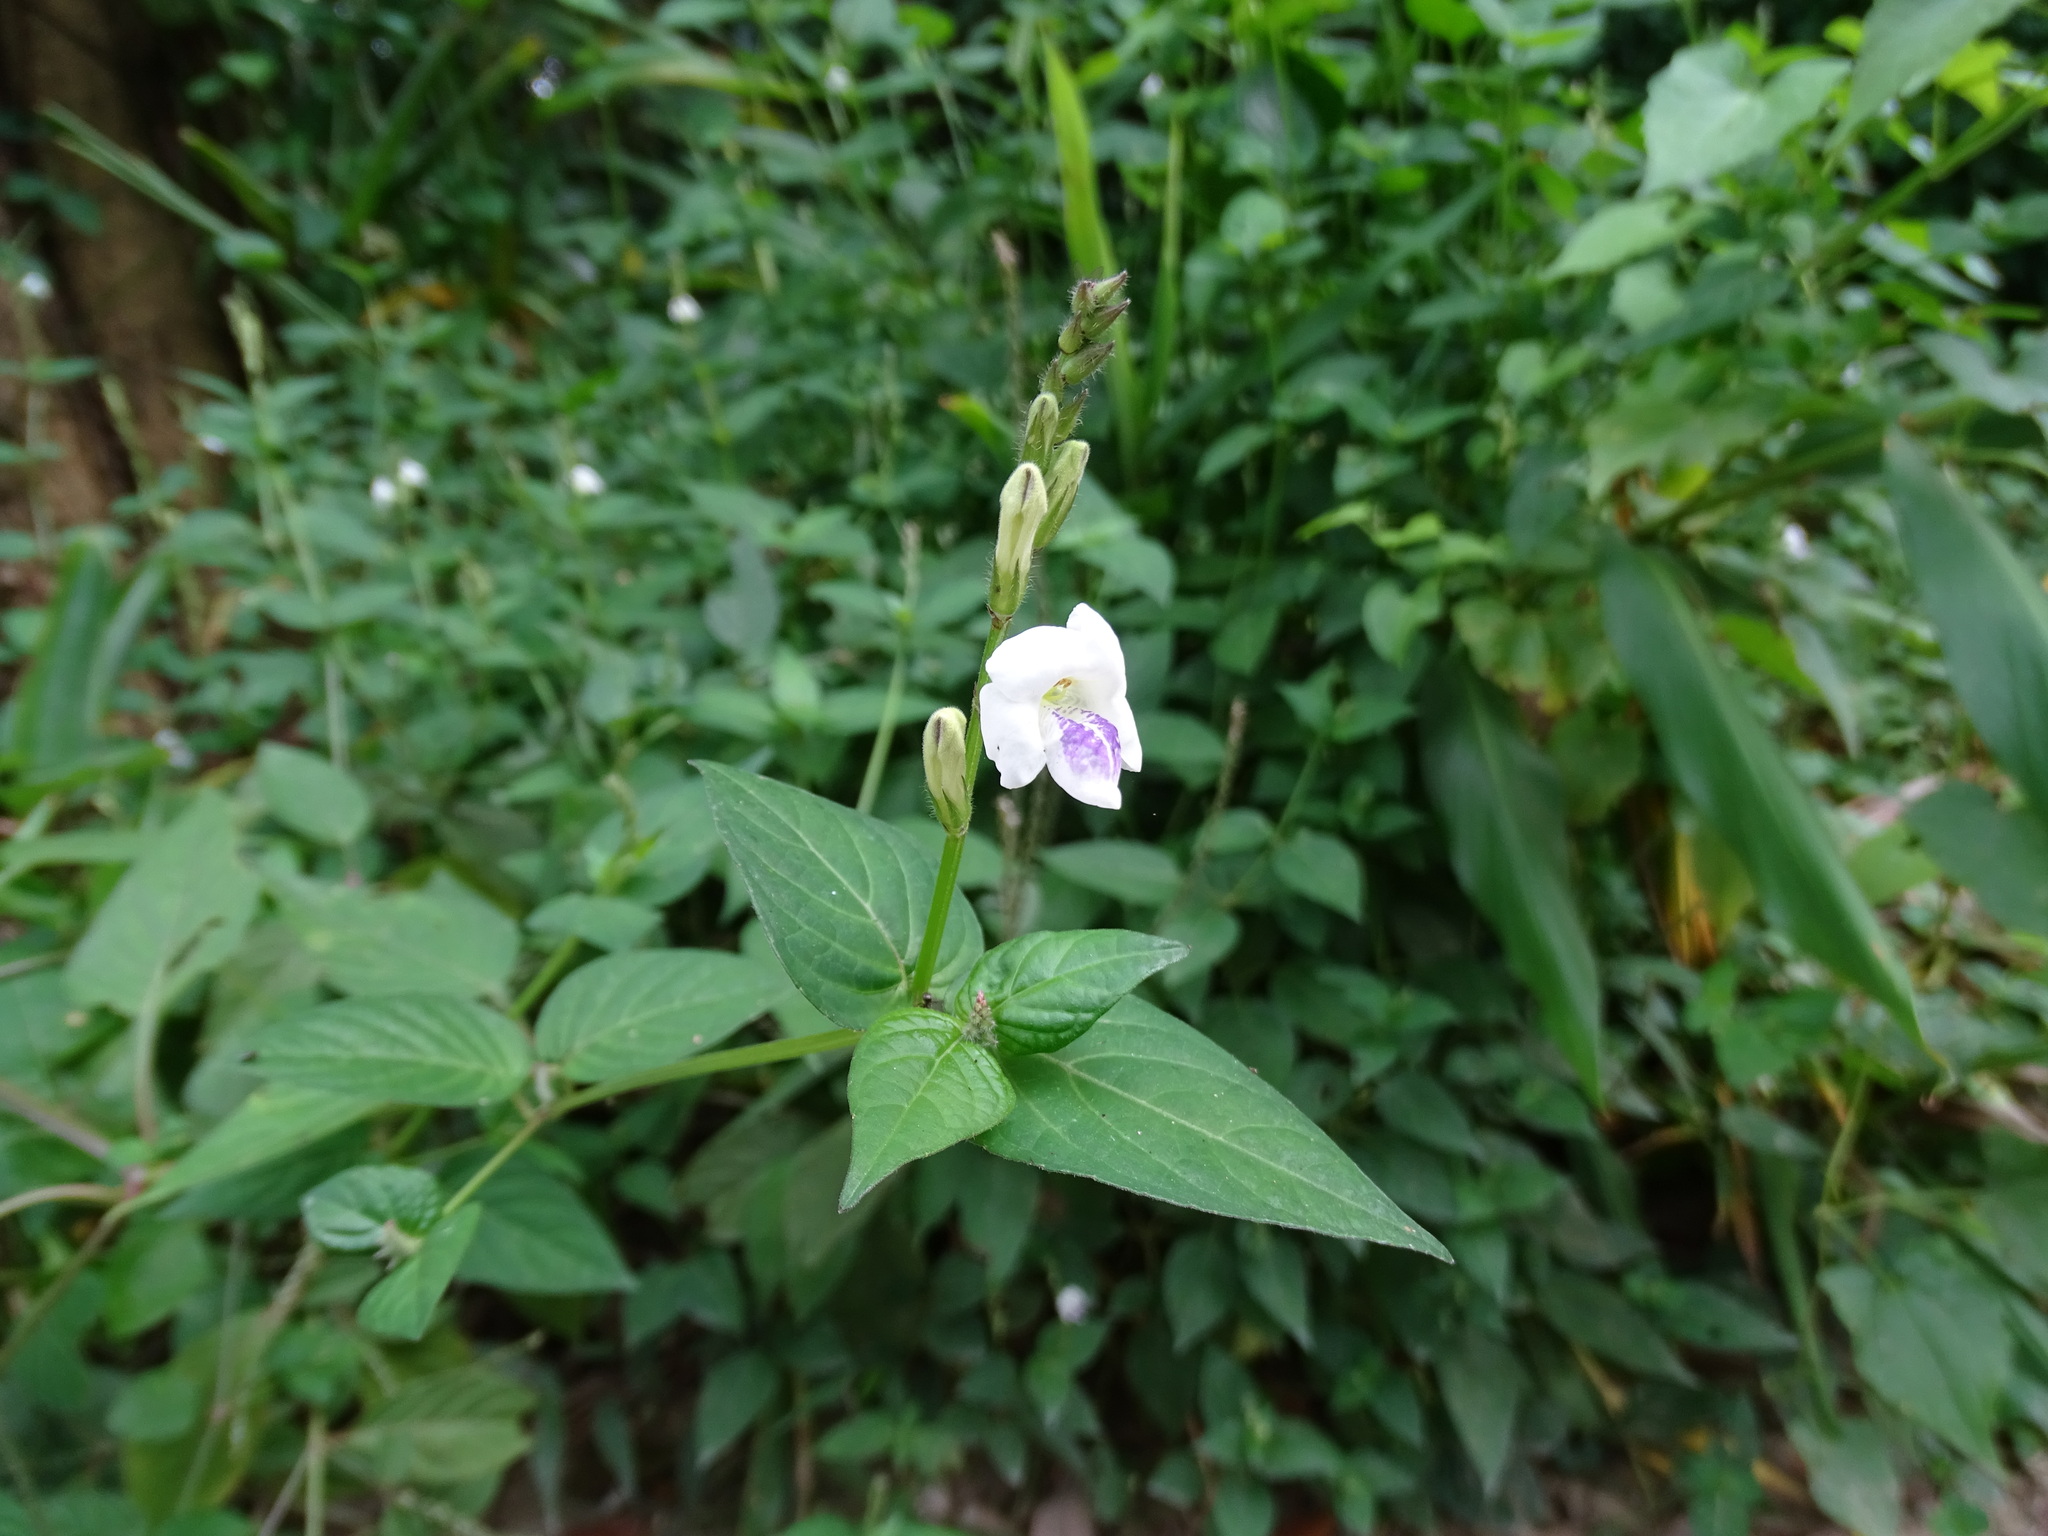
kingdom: Plantae
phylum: Tracheophyta
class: Magnoliopsida
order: Lamiales
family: Acanthaceae
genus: Asystasia
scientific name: Asystasia intrusa
